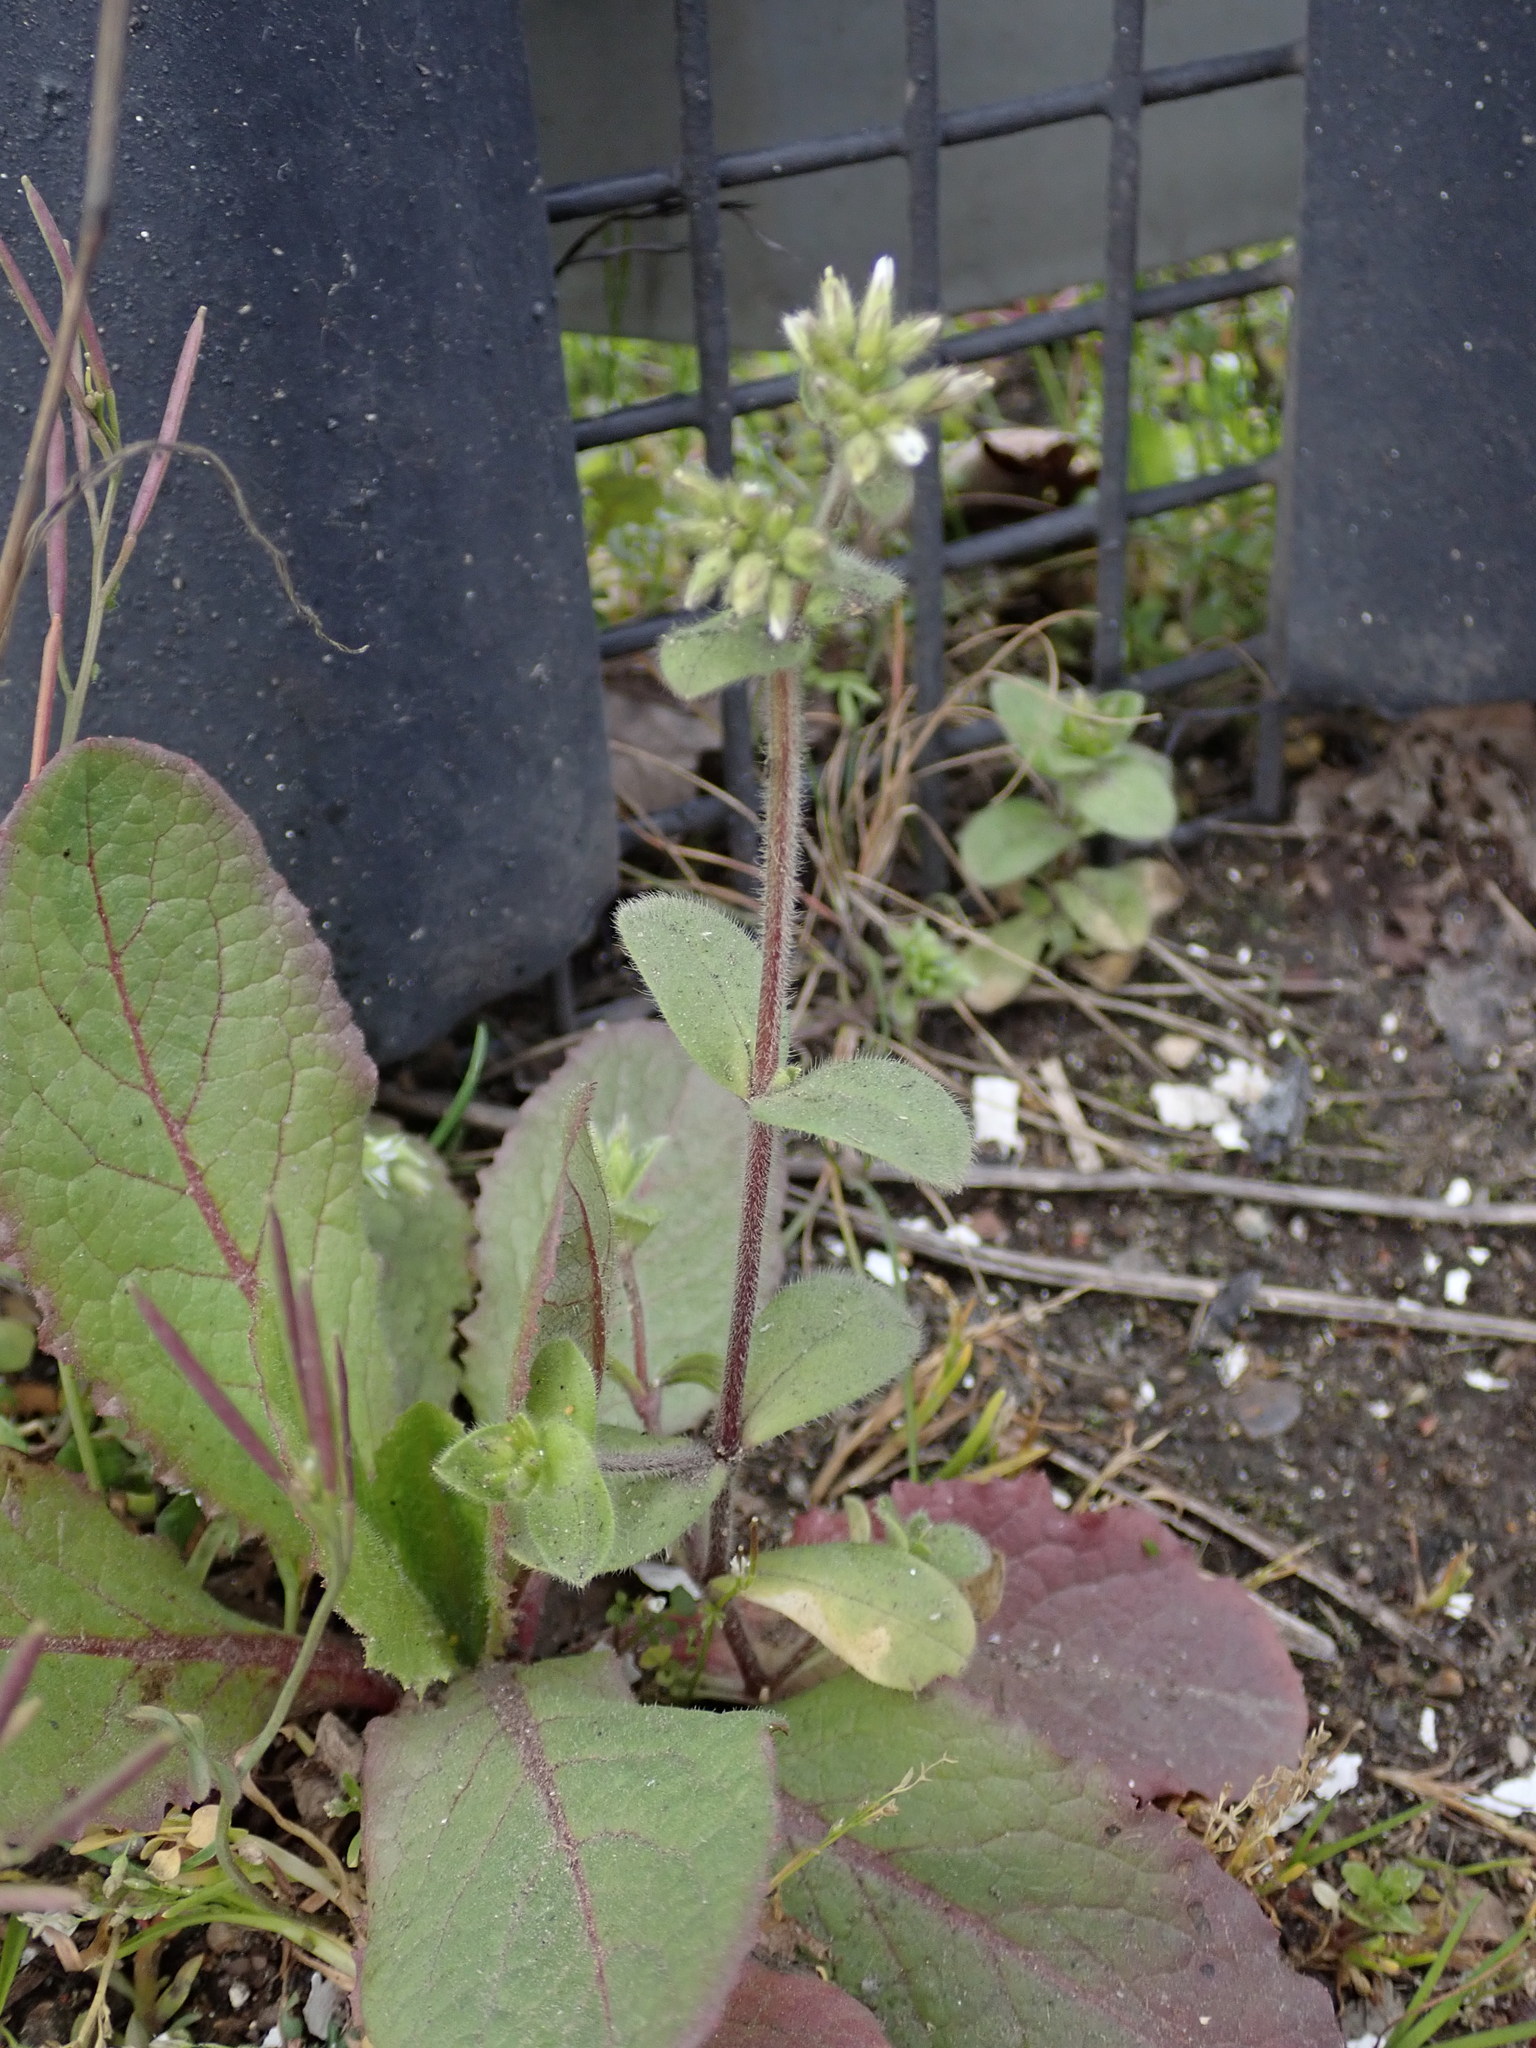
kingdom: Plantae
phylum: Tracheophyta
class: Magnoliopsida
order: Caryophyllales
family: Caryophyllaceae
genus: Cerastium
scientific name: Cerastium glomeratum
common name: Sticky chickweed
